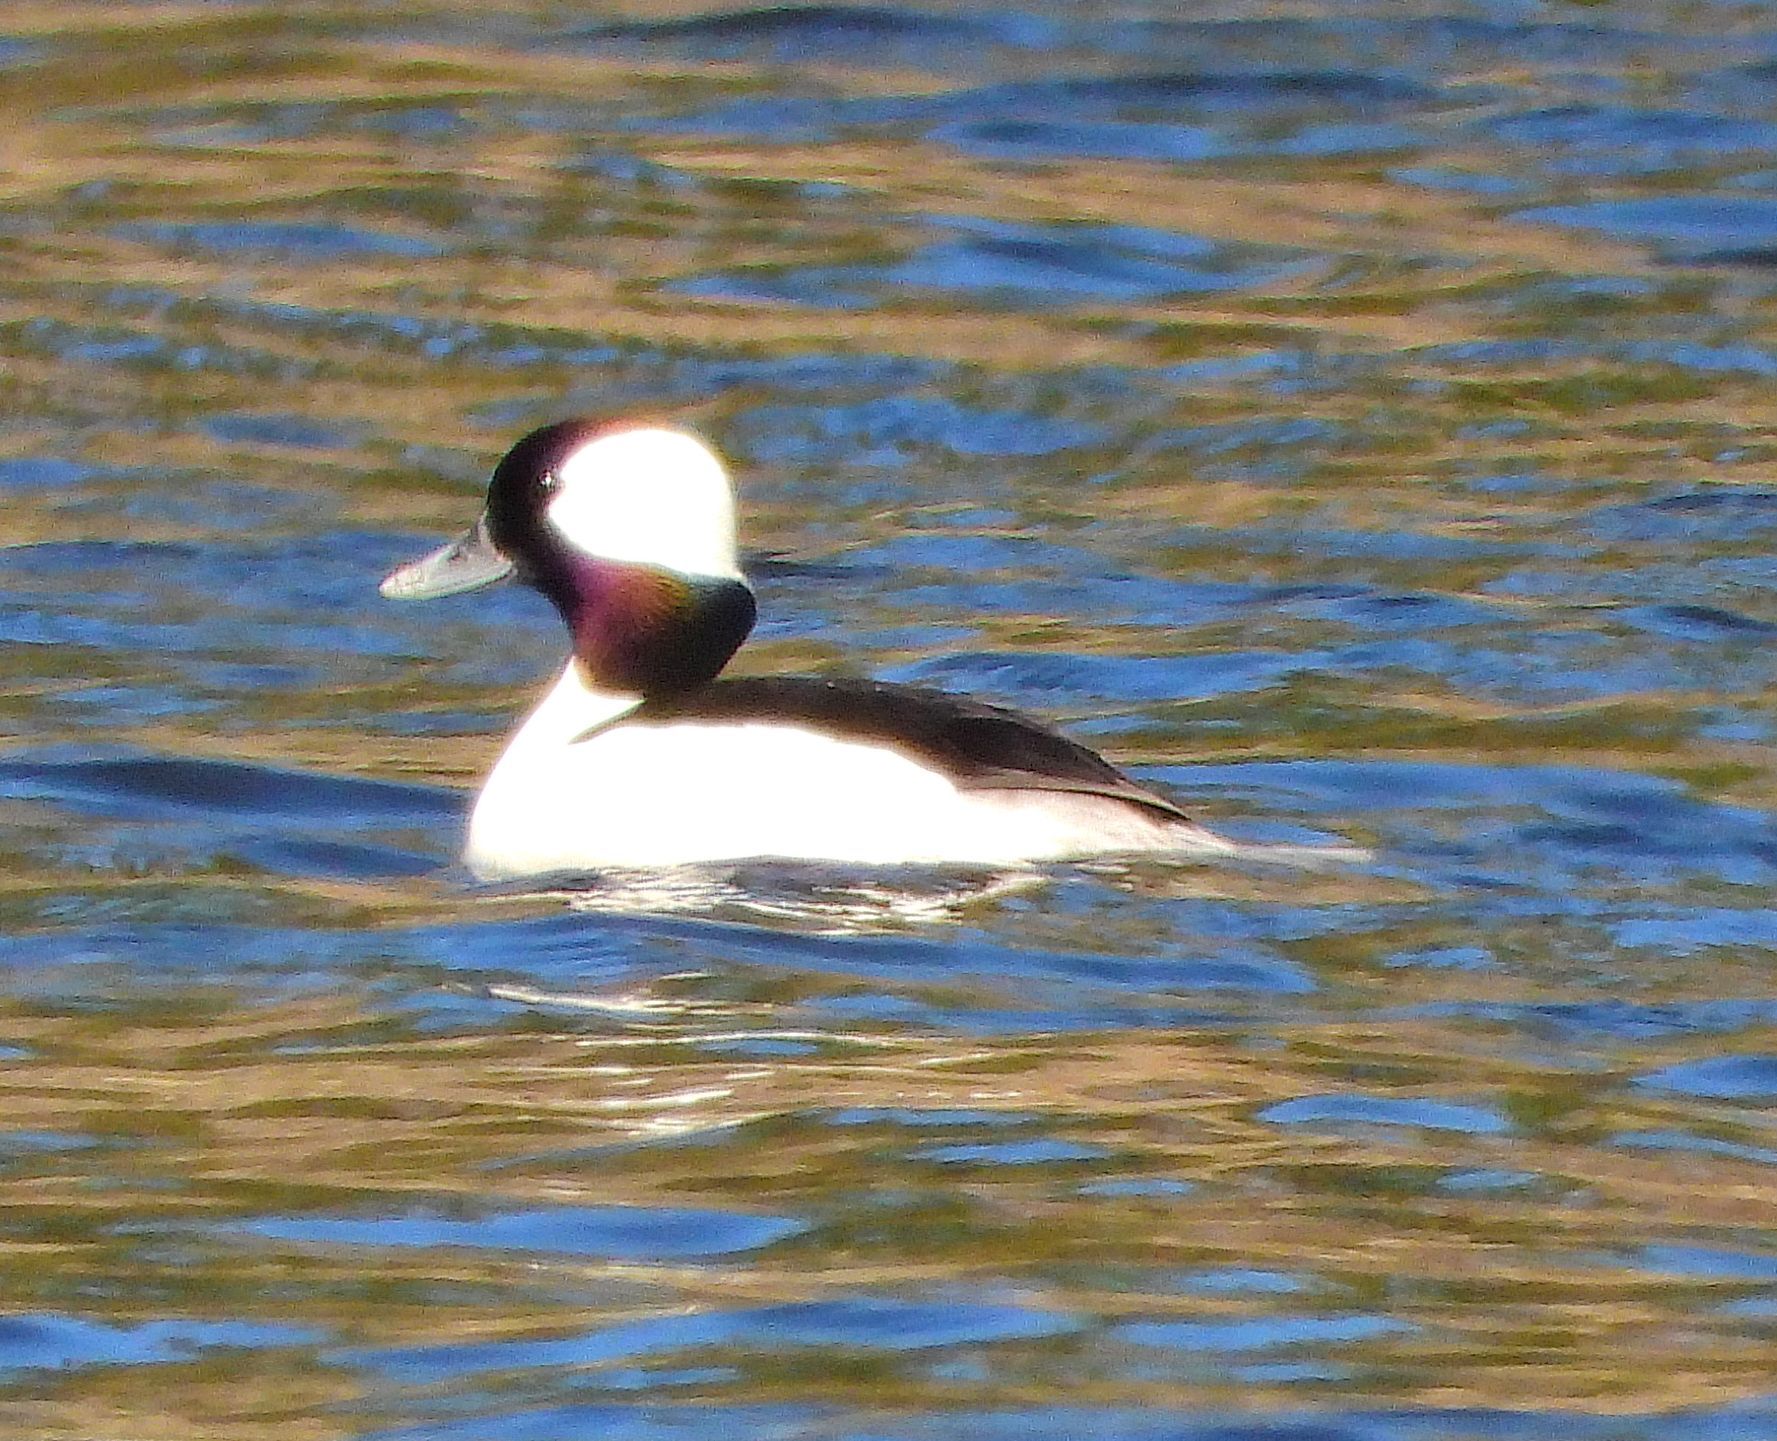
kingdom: Animalia
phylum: Chordata
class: Aves
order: Anseriformes
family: Anatidae
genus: Bucephala
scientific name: Bucephala albeola
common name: Bufflehead
